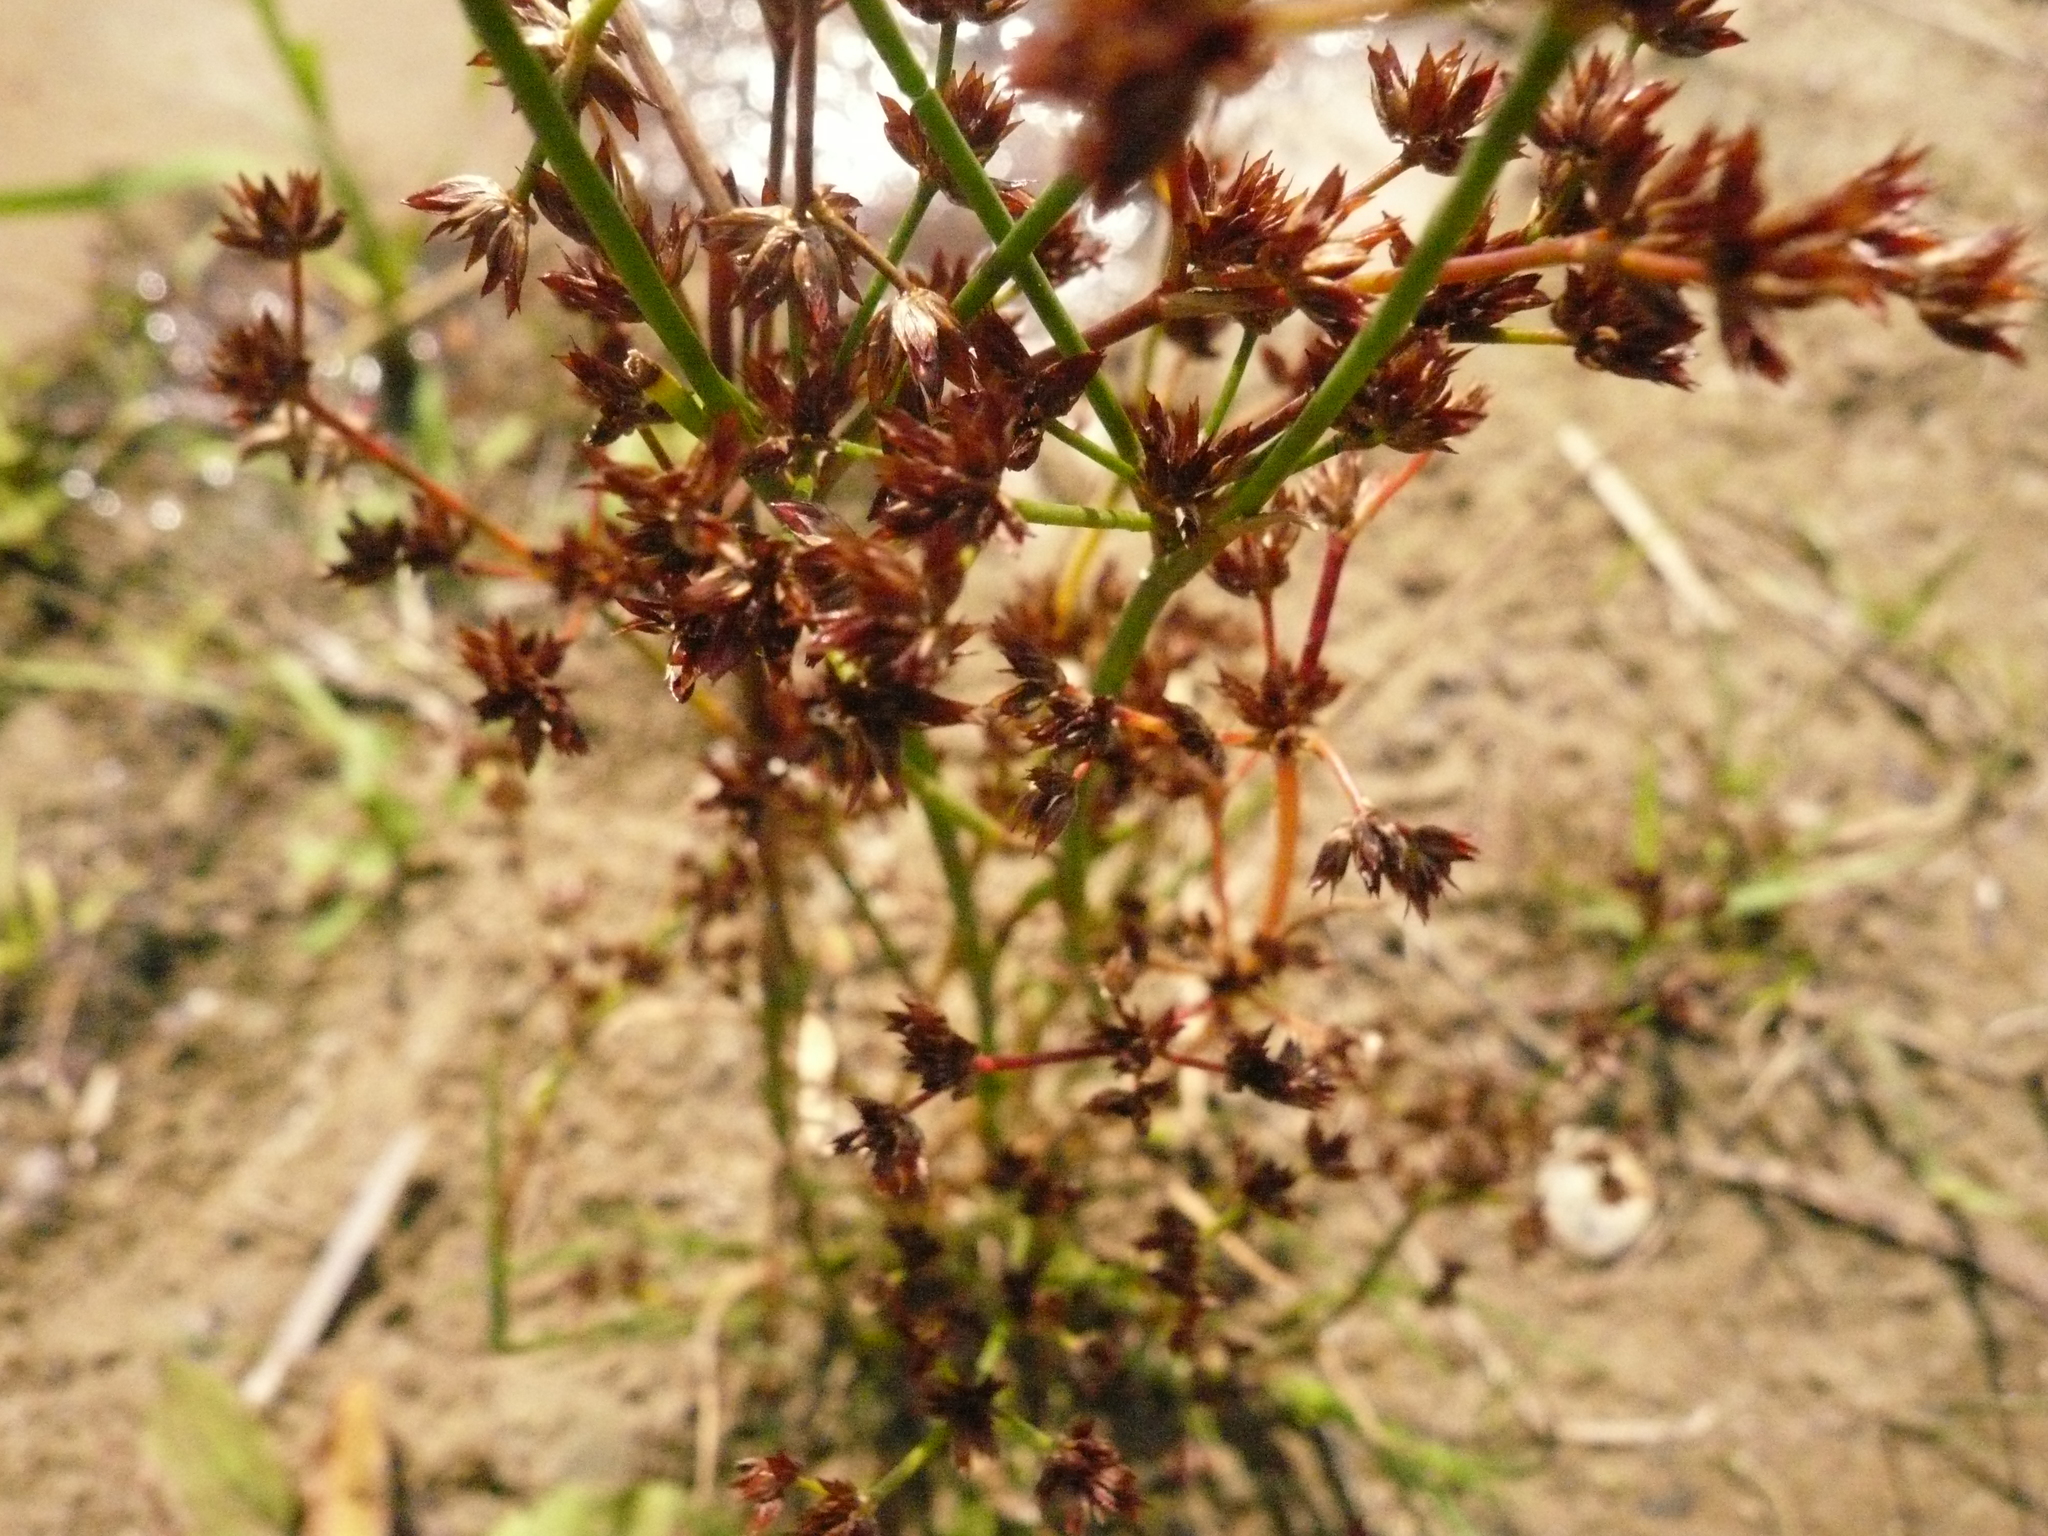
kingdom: Plantae
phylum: Tracheophyta
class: Liliopsida
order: Poales
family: Juncaceae
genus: Juncus
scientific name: Juncus articulatus
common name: Jointed rush
